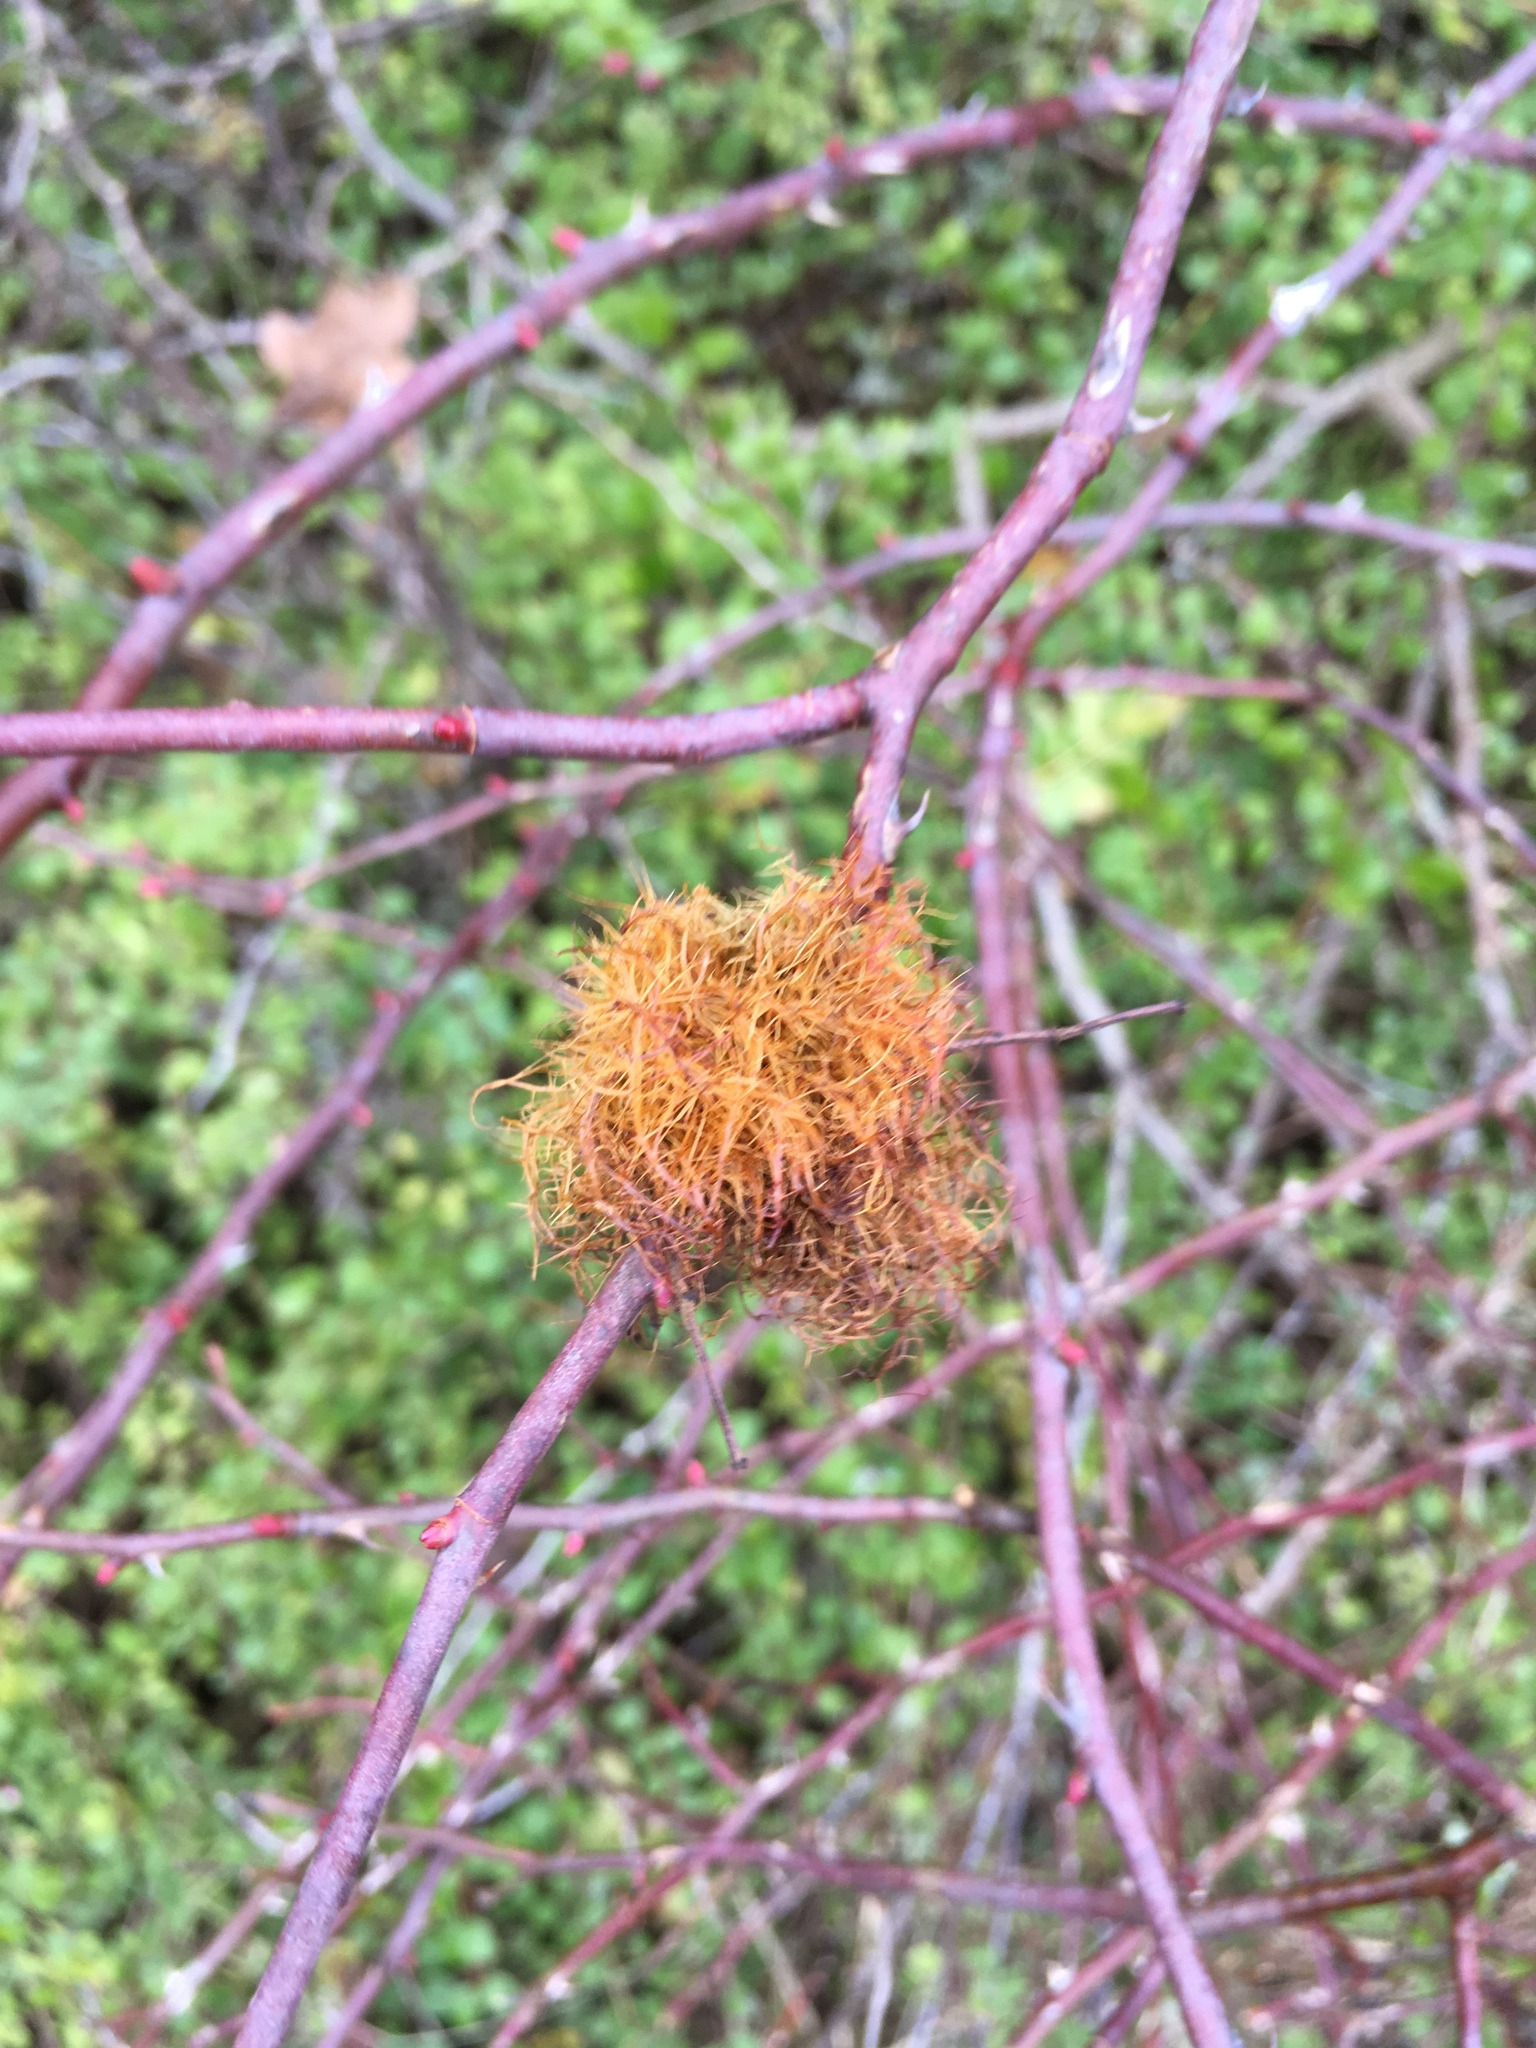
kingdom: Animalia
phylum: Arthropoda
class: Insecta
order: Hymenoptera
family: Cynipidae
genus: Diplolepis
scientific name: Diplolepis rosae
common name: Bedeguar gall
